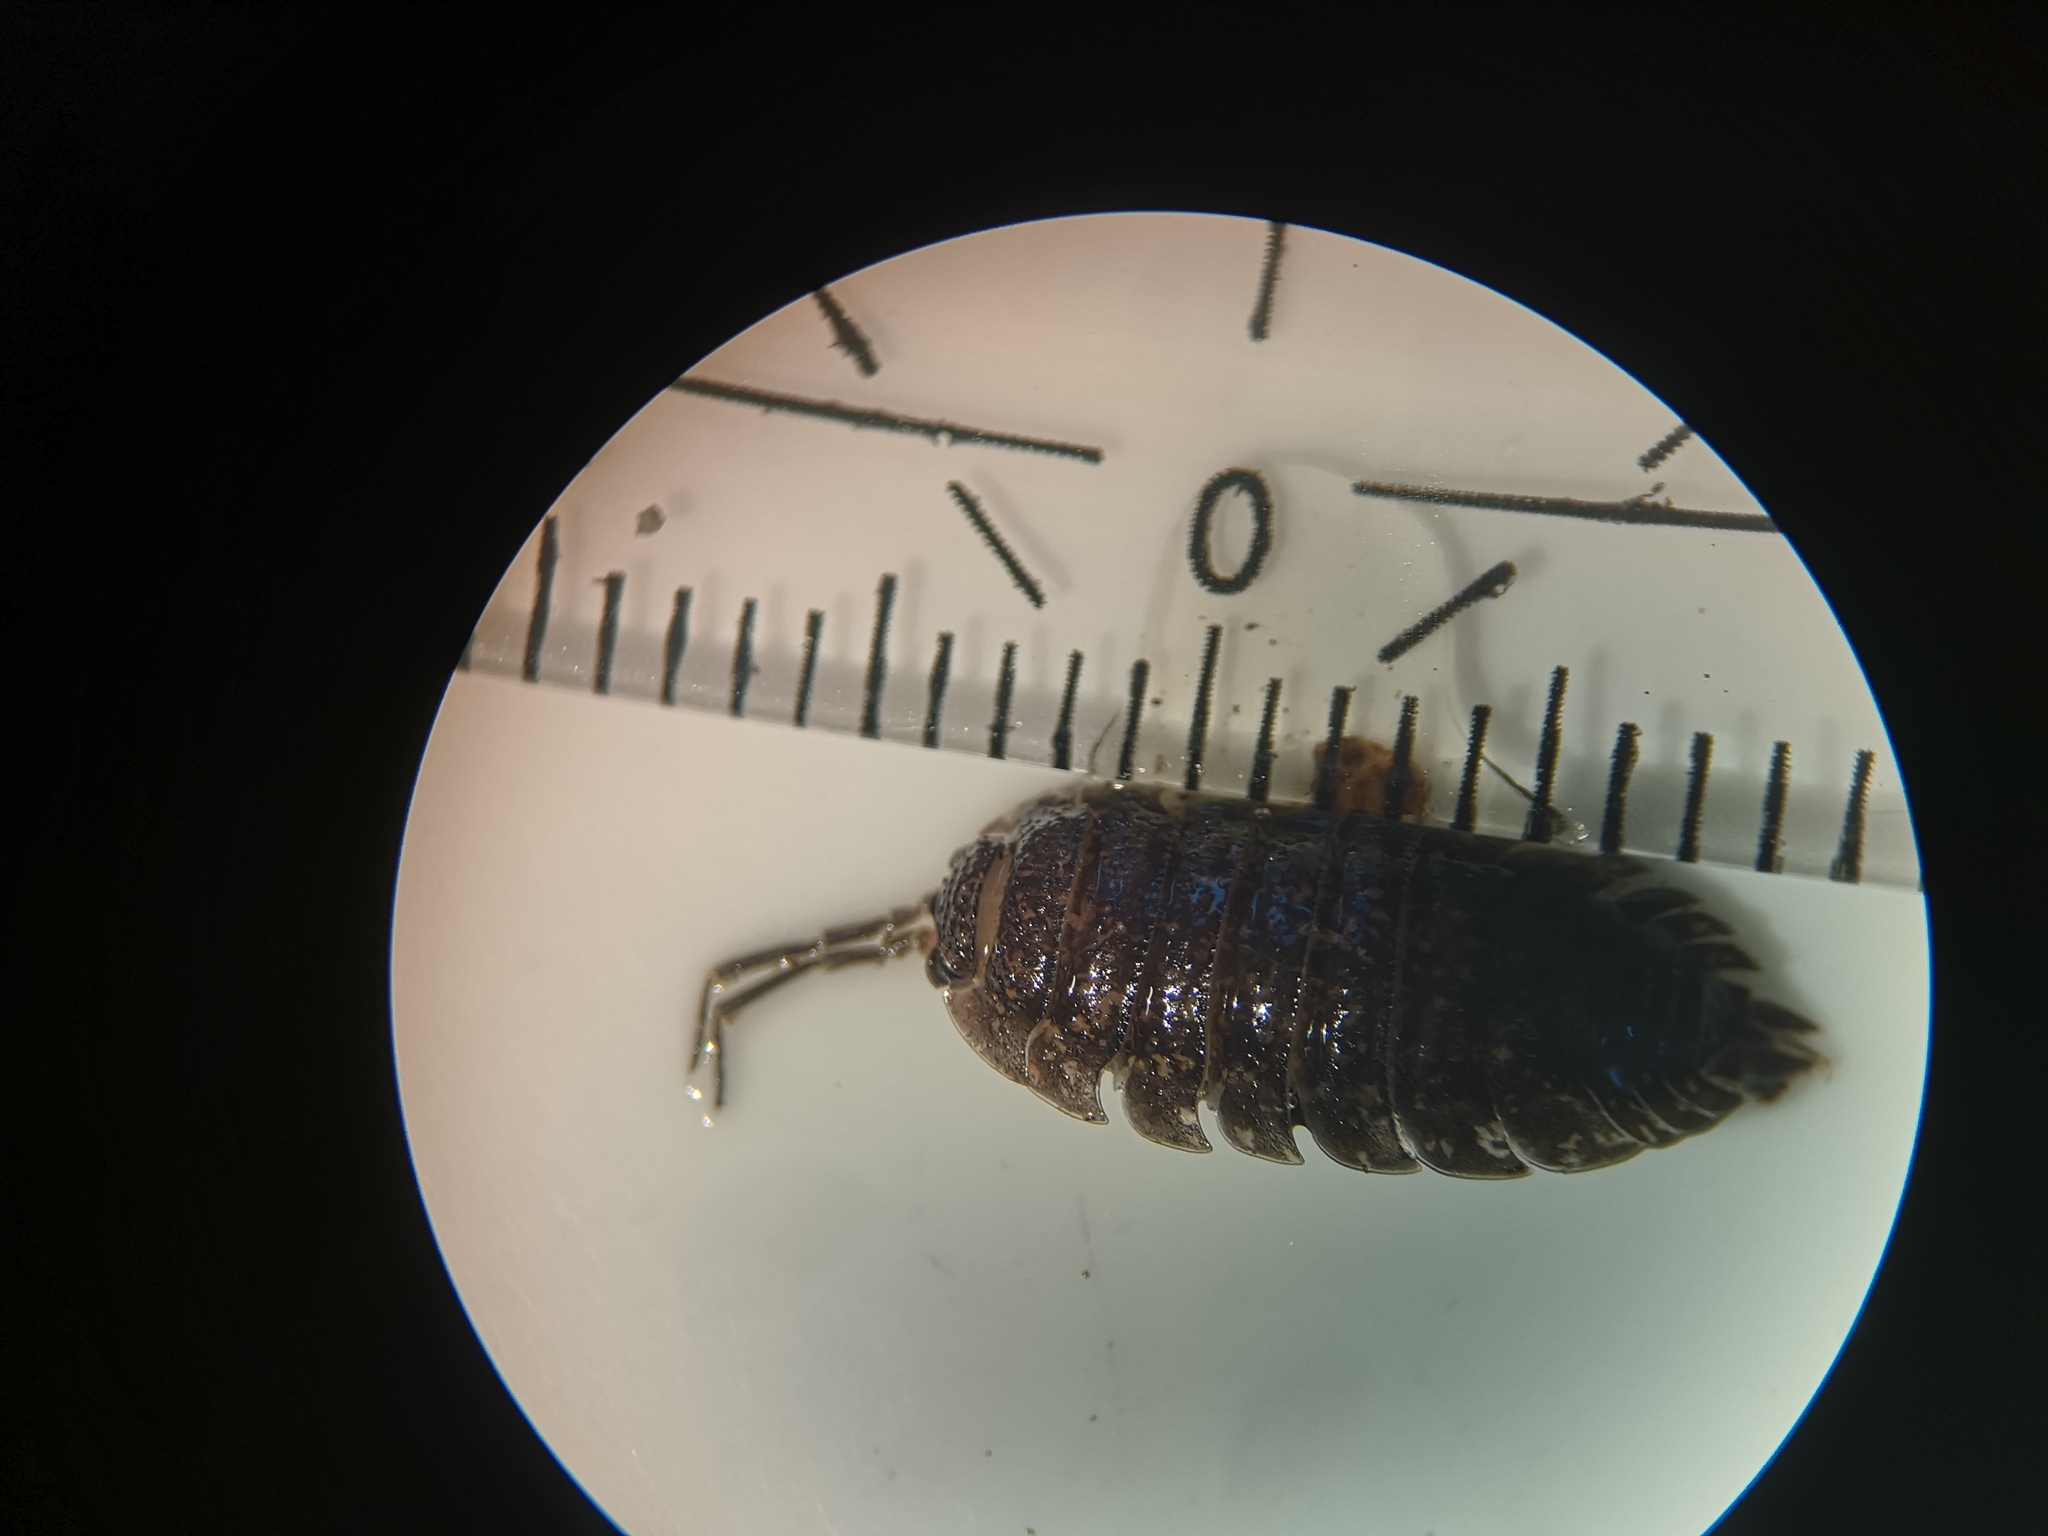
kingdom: Animalia
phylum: Arthropoda
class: Malacostraca
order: Isopoda
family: Porcellionidae
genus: Porcellio
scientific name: Porcellio scaber
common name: Common rough woodlouse
